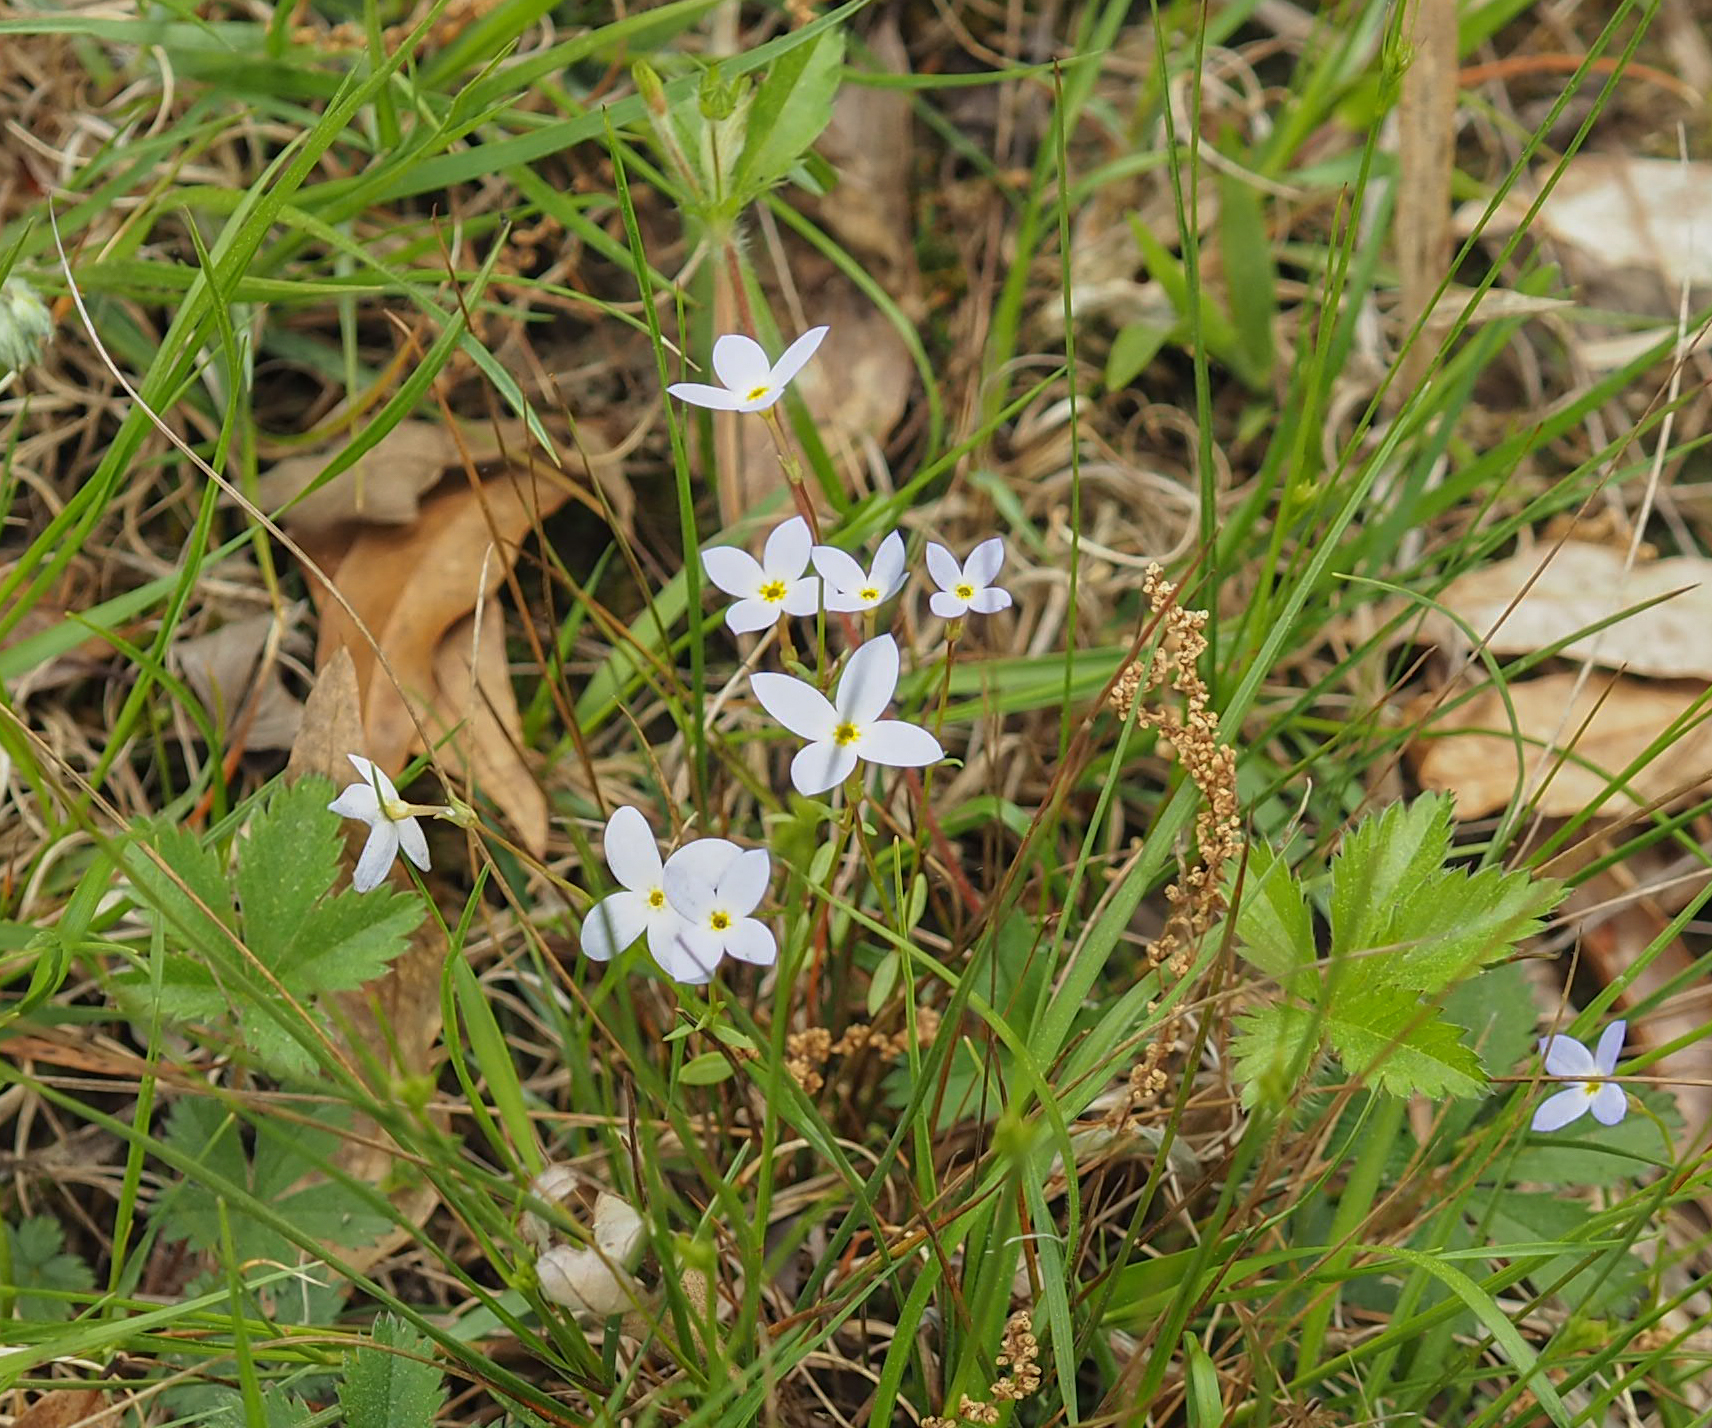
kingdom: Plantae
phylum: Tracheophyta
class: Magnoliopsida
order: Gentianales
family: Rubiaceae
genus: Houstonia
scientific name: Houstonia caerulea
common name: Bluets
